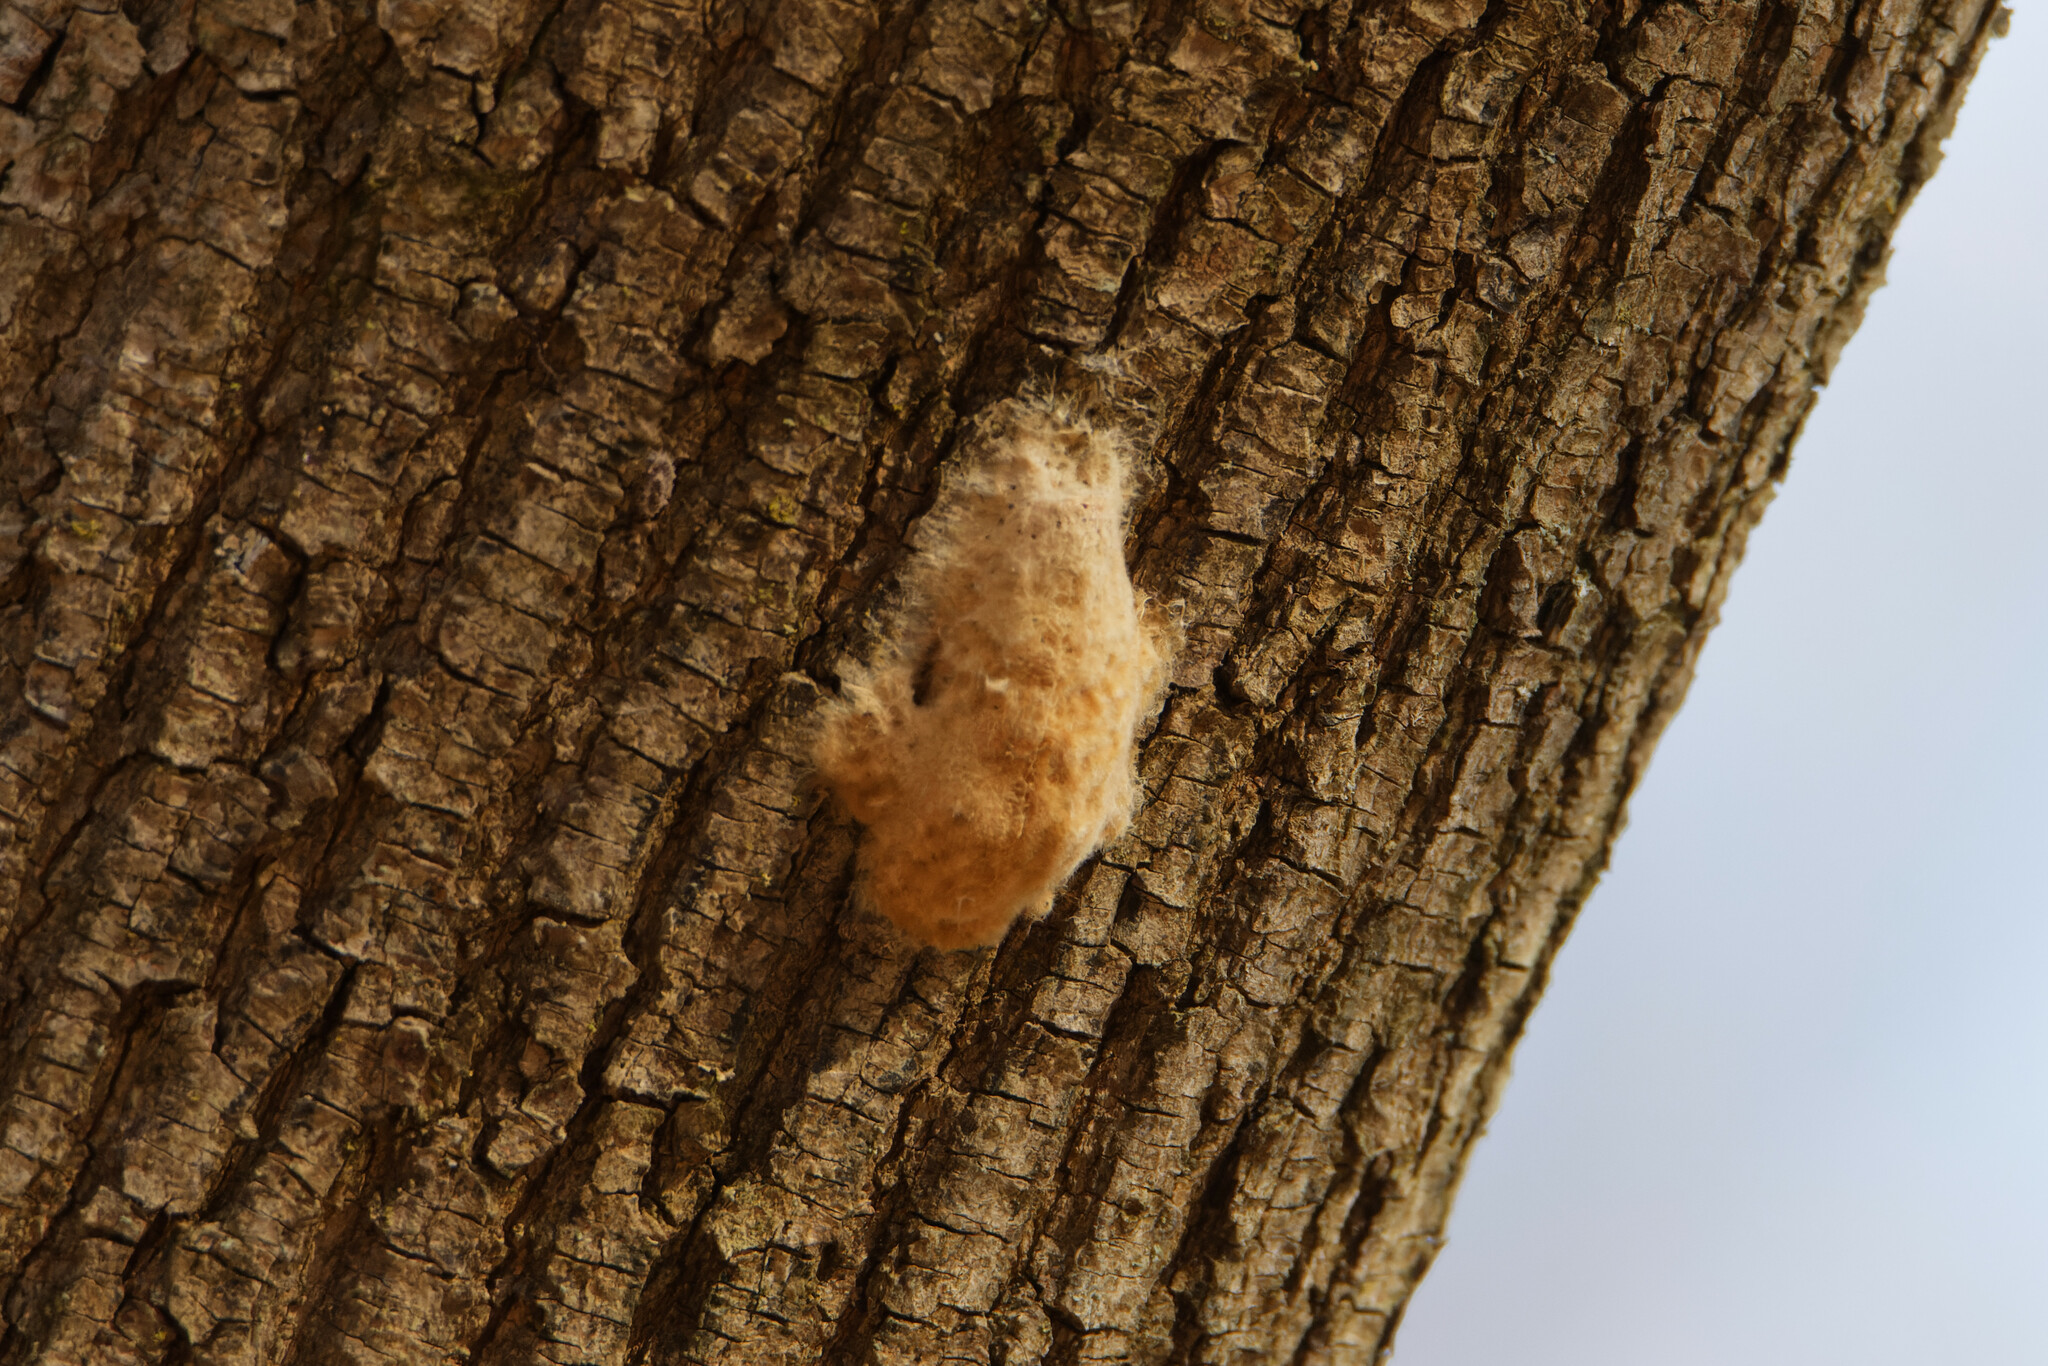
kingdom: Animalia
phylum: Arthropoda
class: Insecta
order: Lepidoptera
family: Erebidae
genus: Lymantria
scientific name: Lymantria dispar
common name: Gypsy moth
